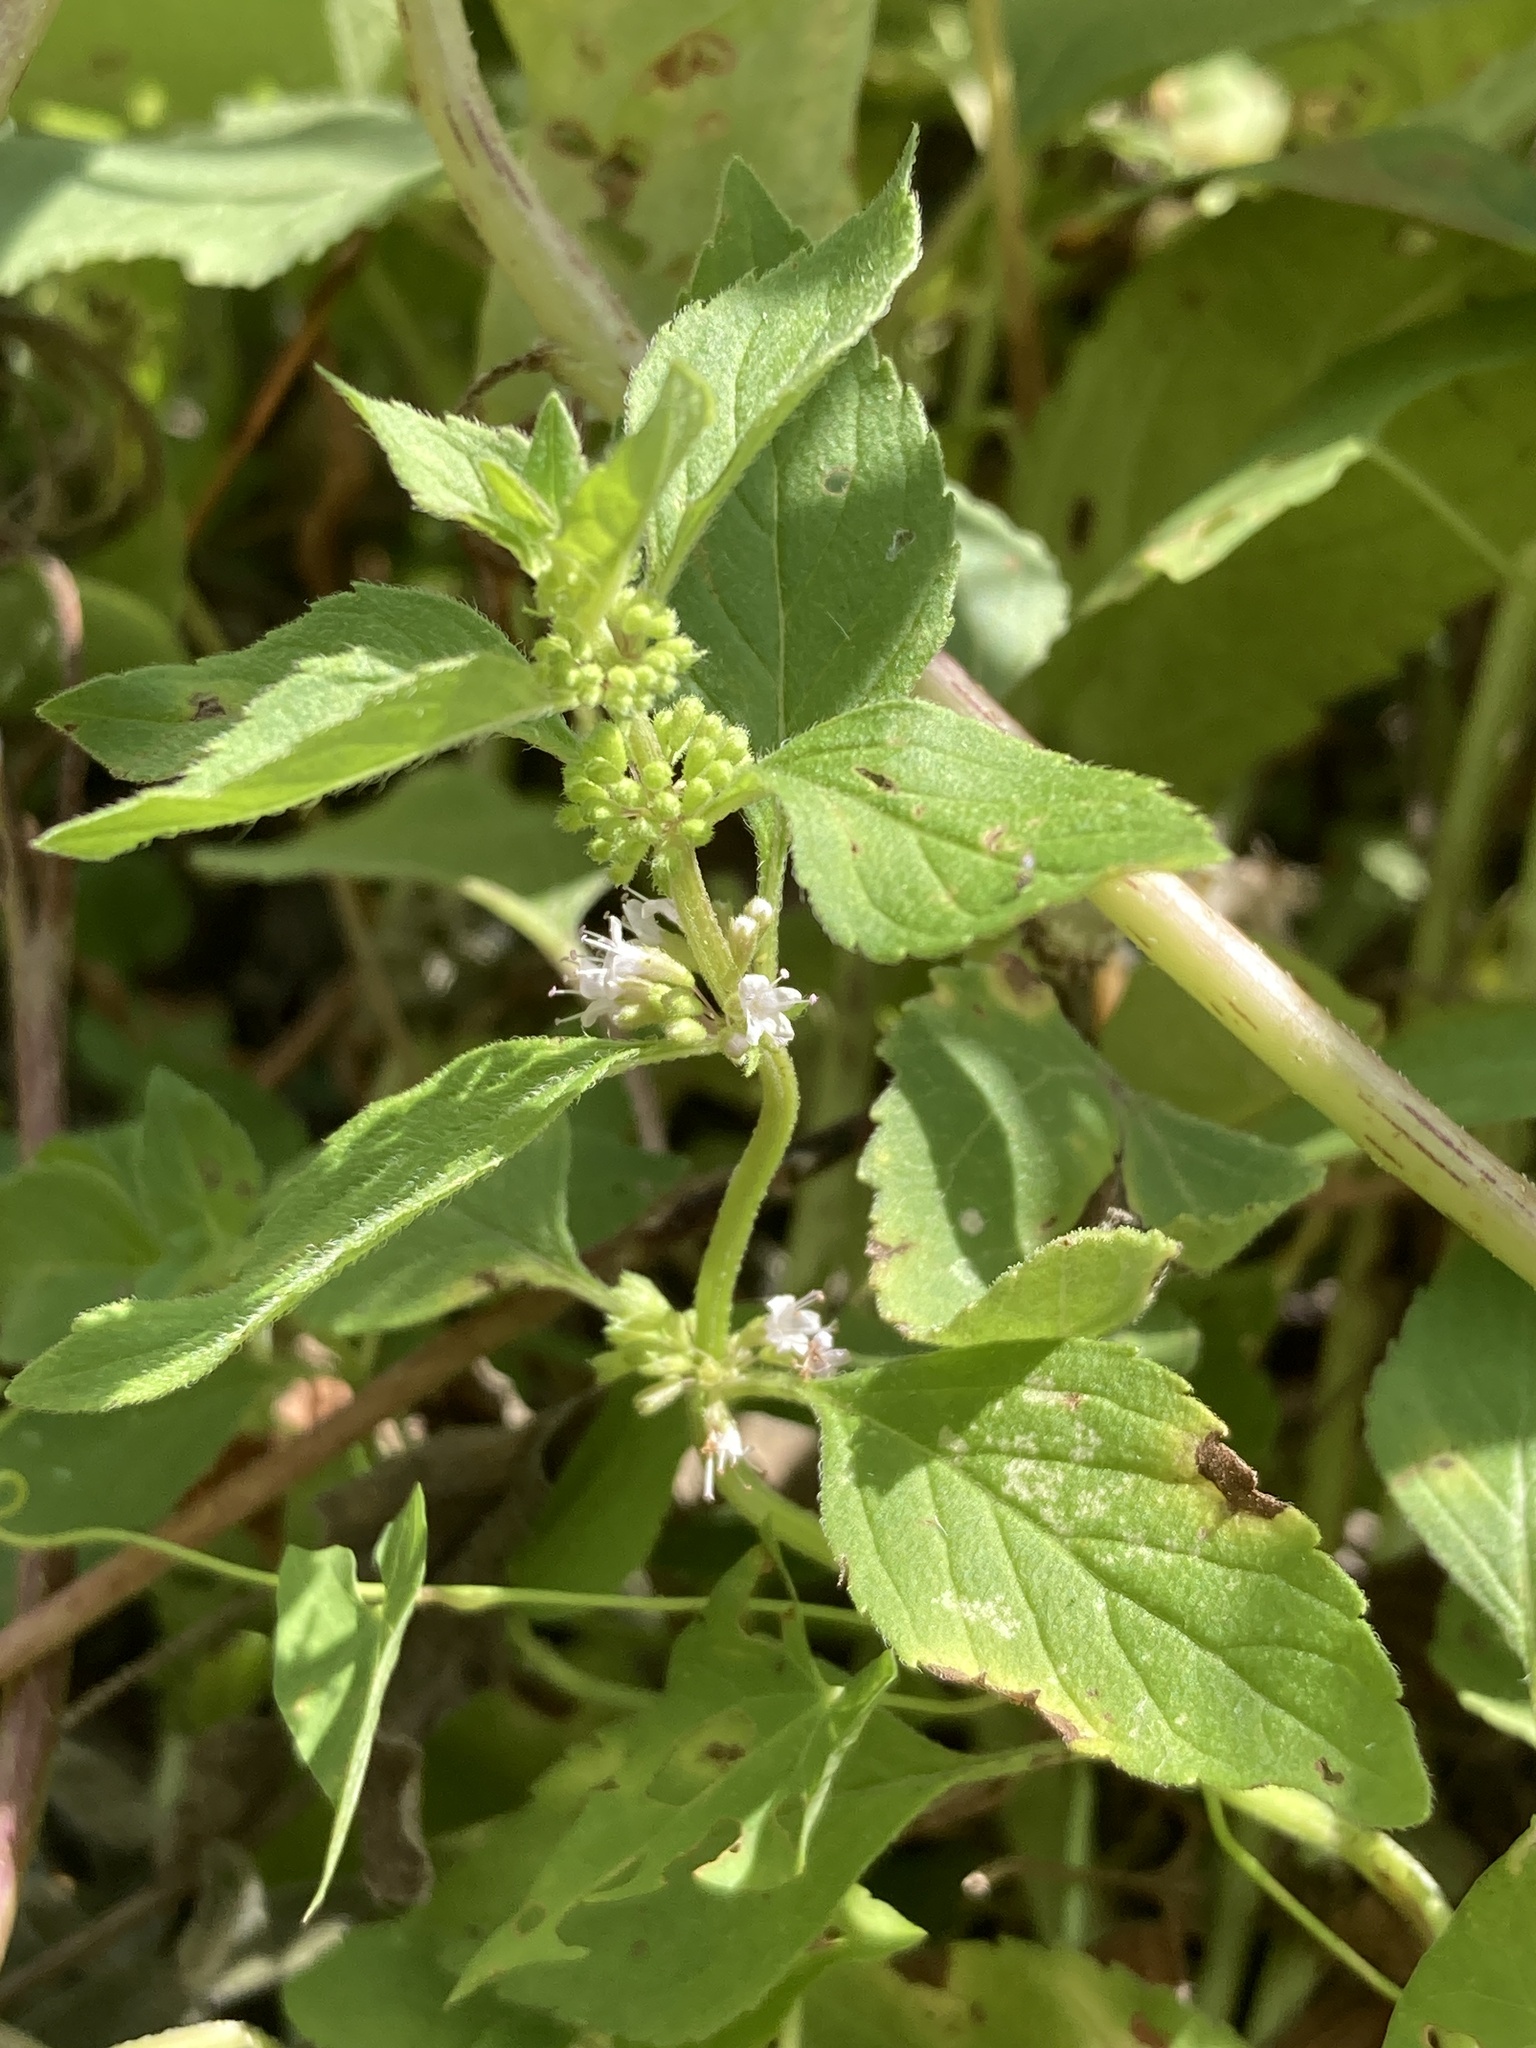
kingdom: Plantae
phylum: Tracheophyta
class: Magnoliopsida
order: Lamiales
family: Lamiaceae
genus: Mentha
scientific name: Mentha arvensis
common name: Corn mint
